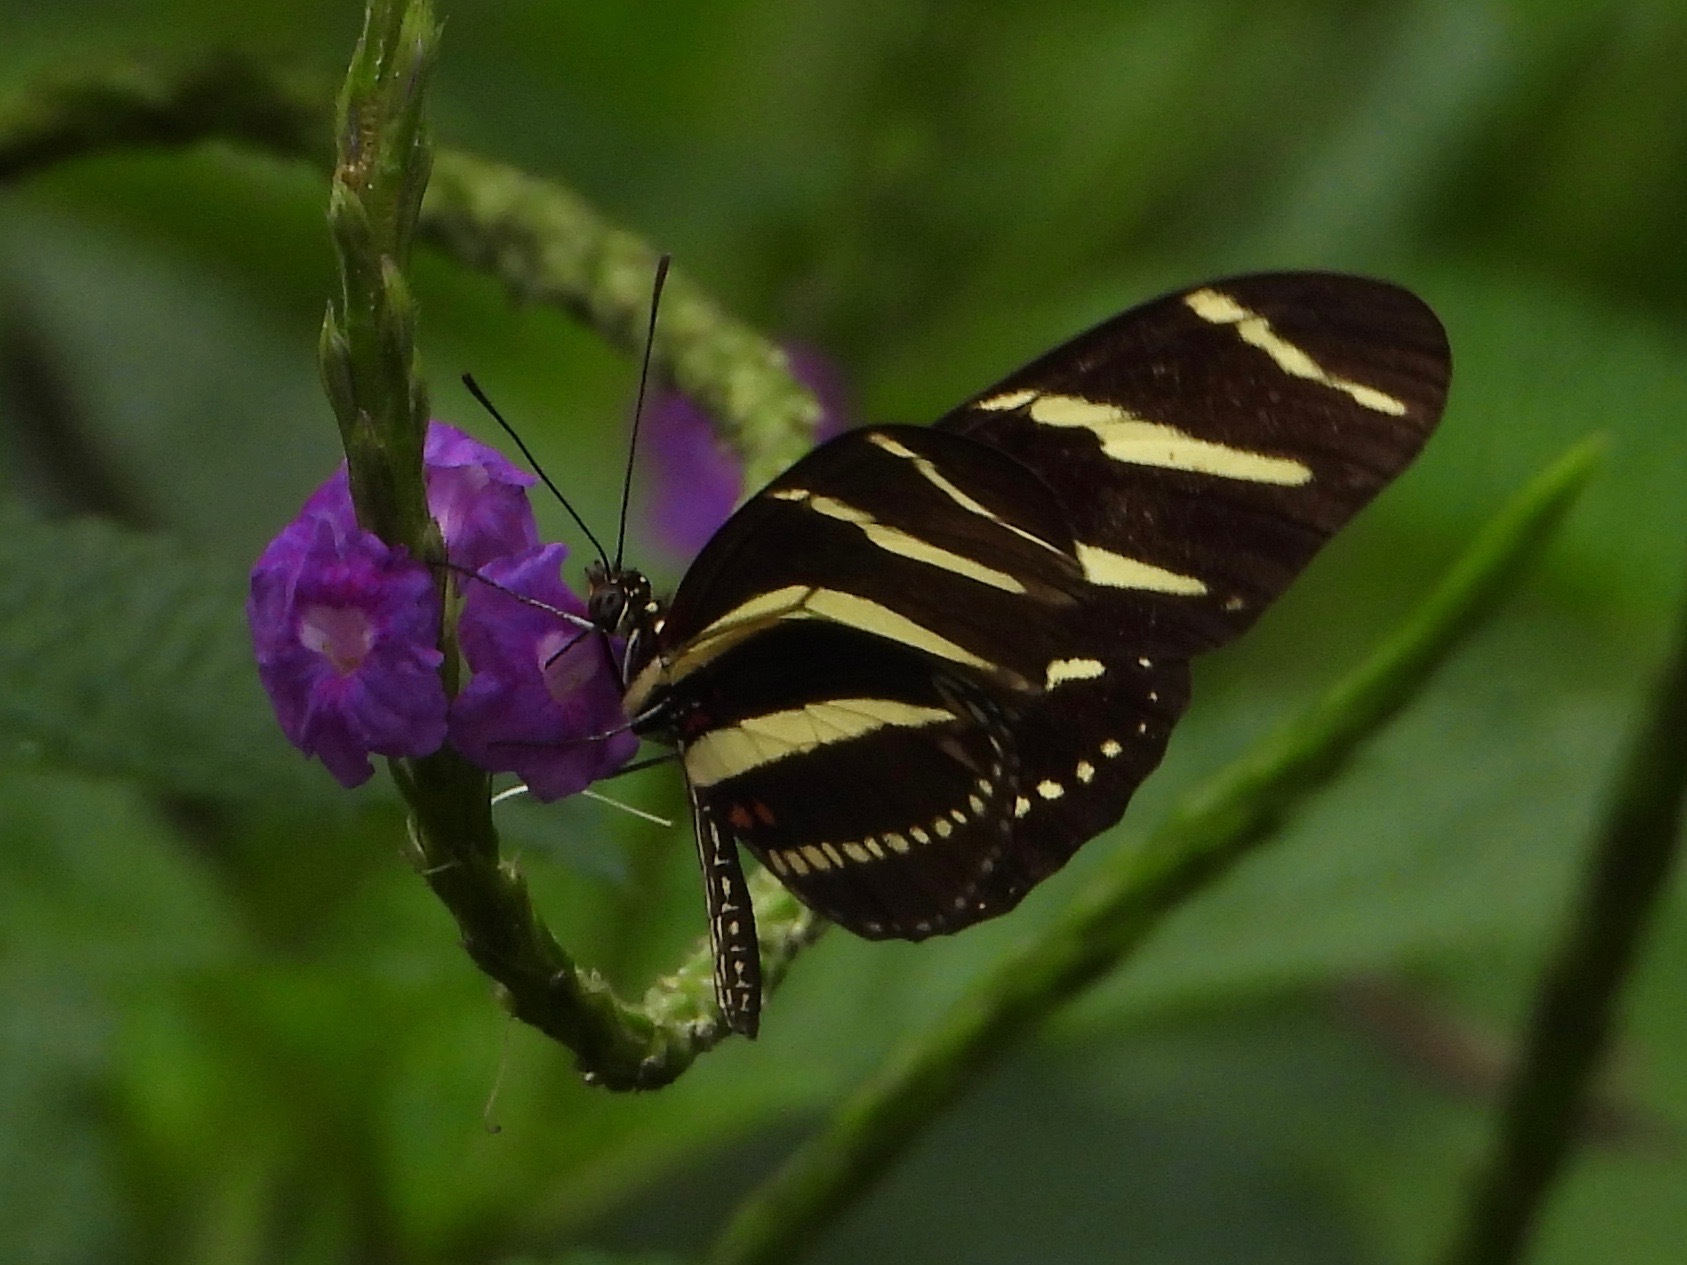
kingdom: Animalia
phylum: Arthropoda
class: Insecta
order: Lepidoptera
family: Nymphalidae
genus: Heliconius
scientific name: Heliconius charithonia
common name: Zebra long wing
